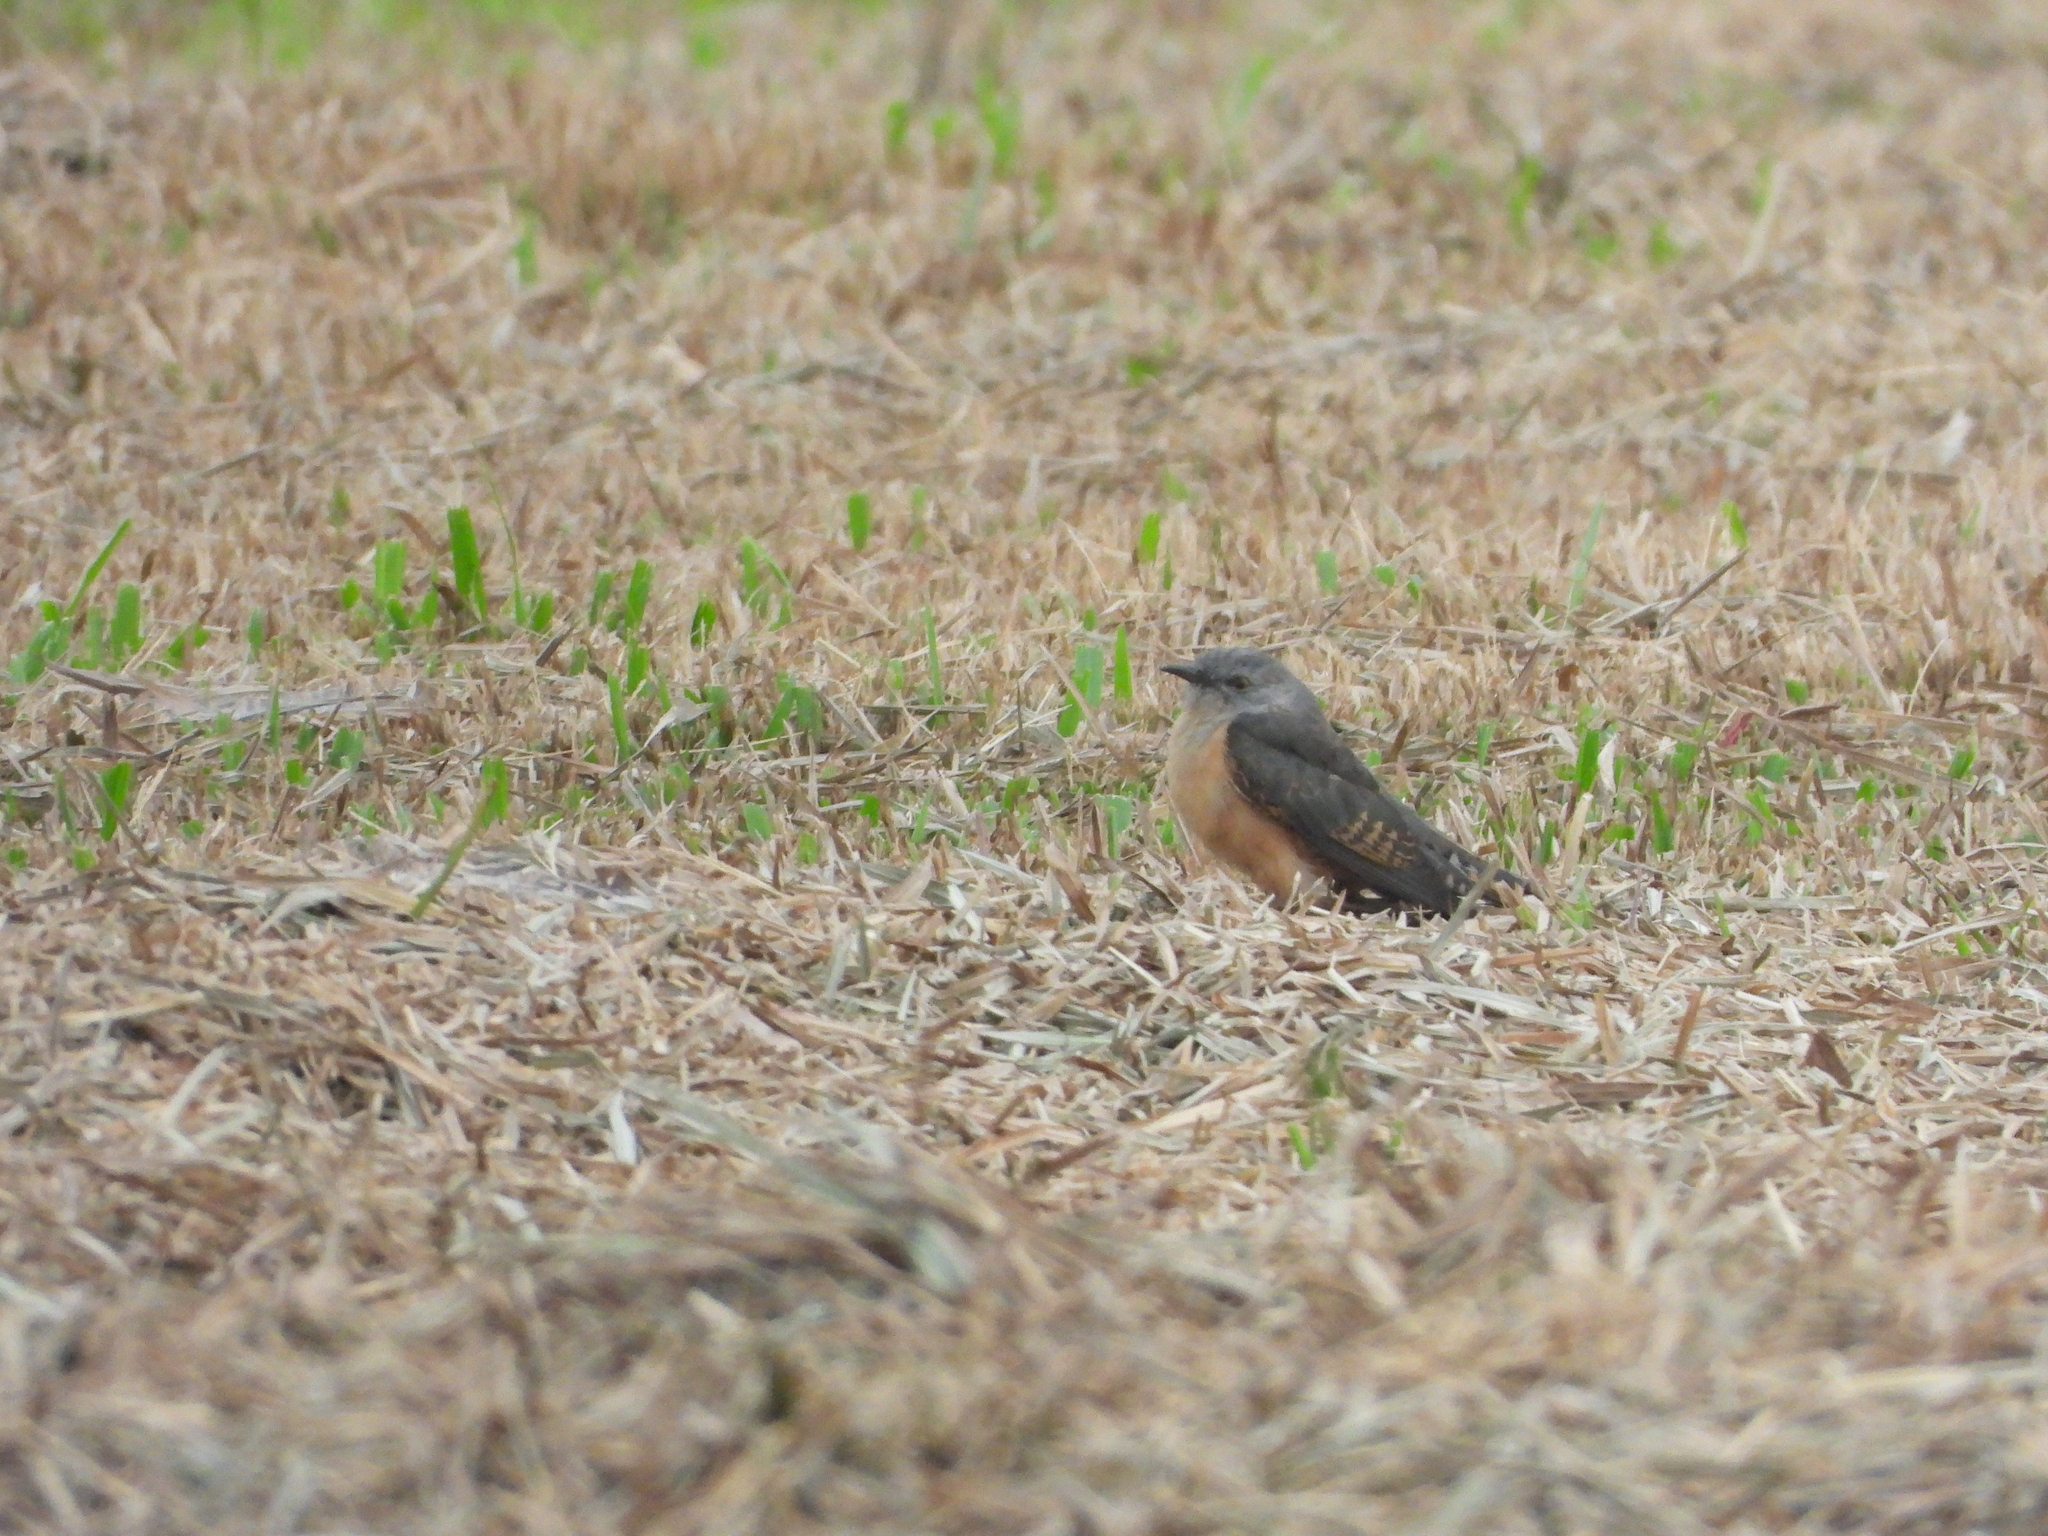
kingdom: Animalia
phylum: Chordata
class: Aves
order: Cuculiformes
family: Cuculidae
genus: Cacomantis
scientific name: Cacomantis merulinus
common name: Plaintive cuckoo
